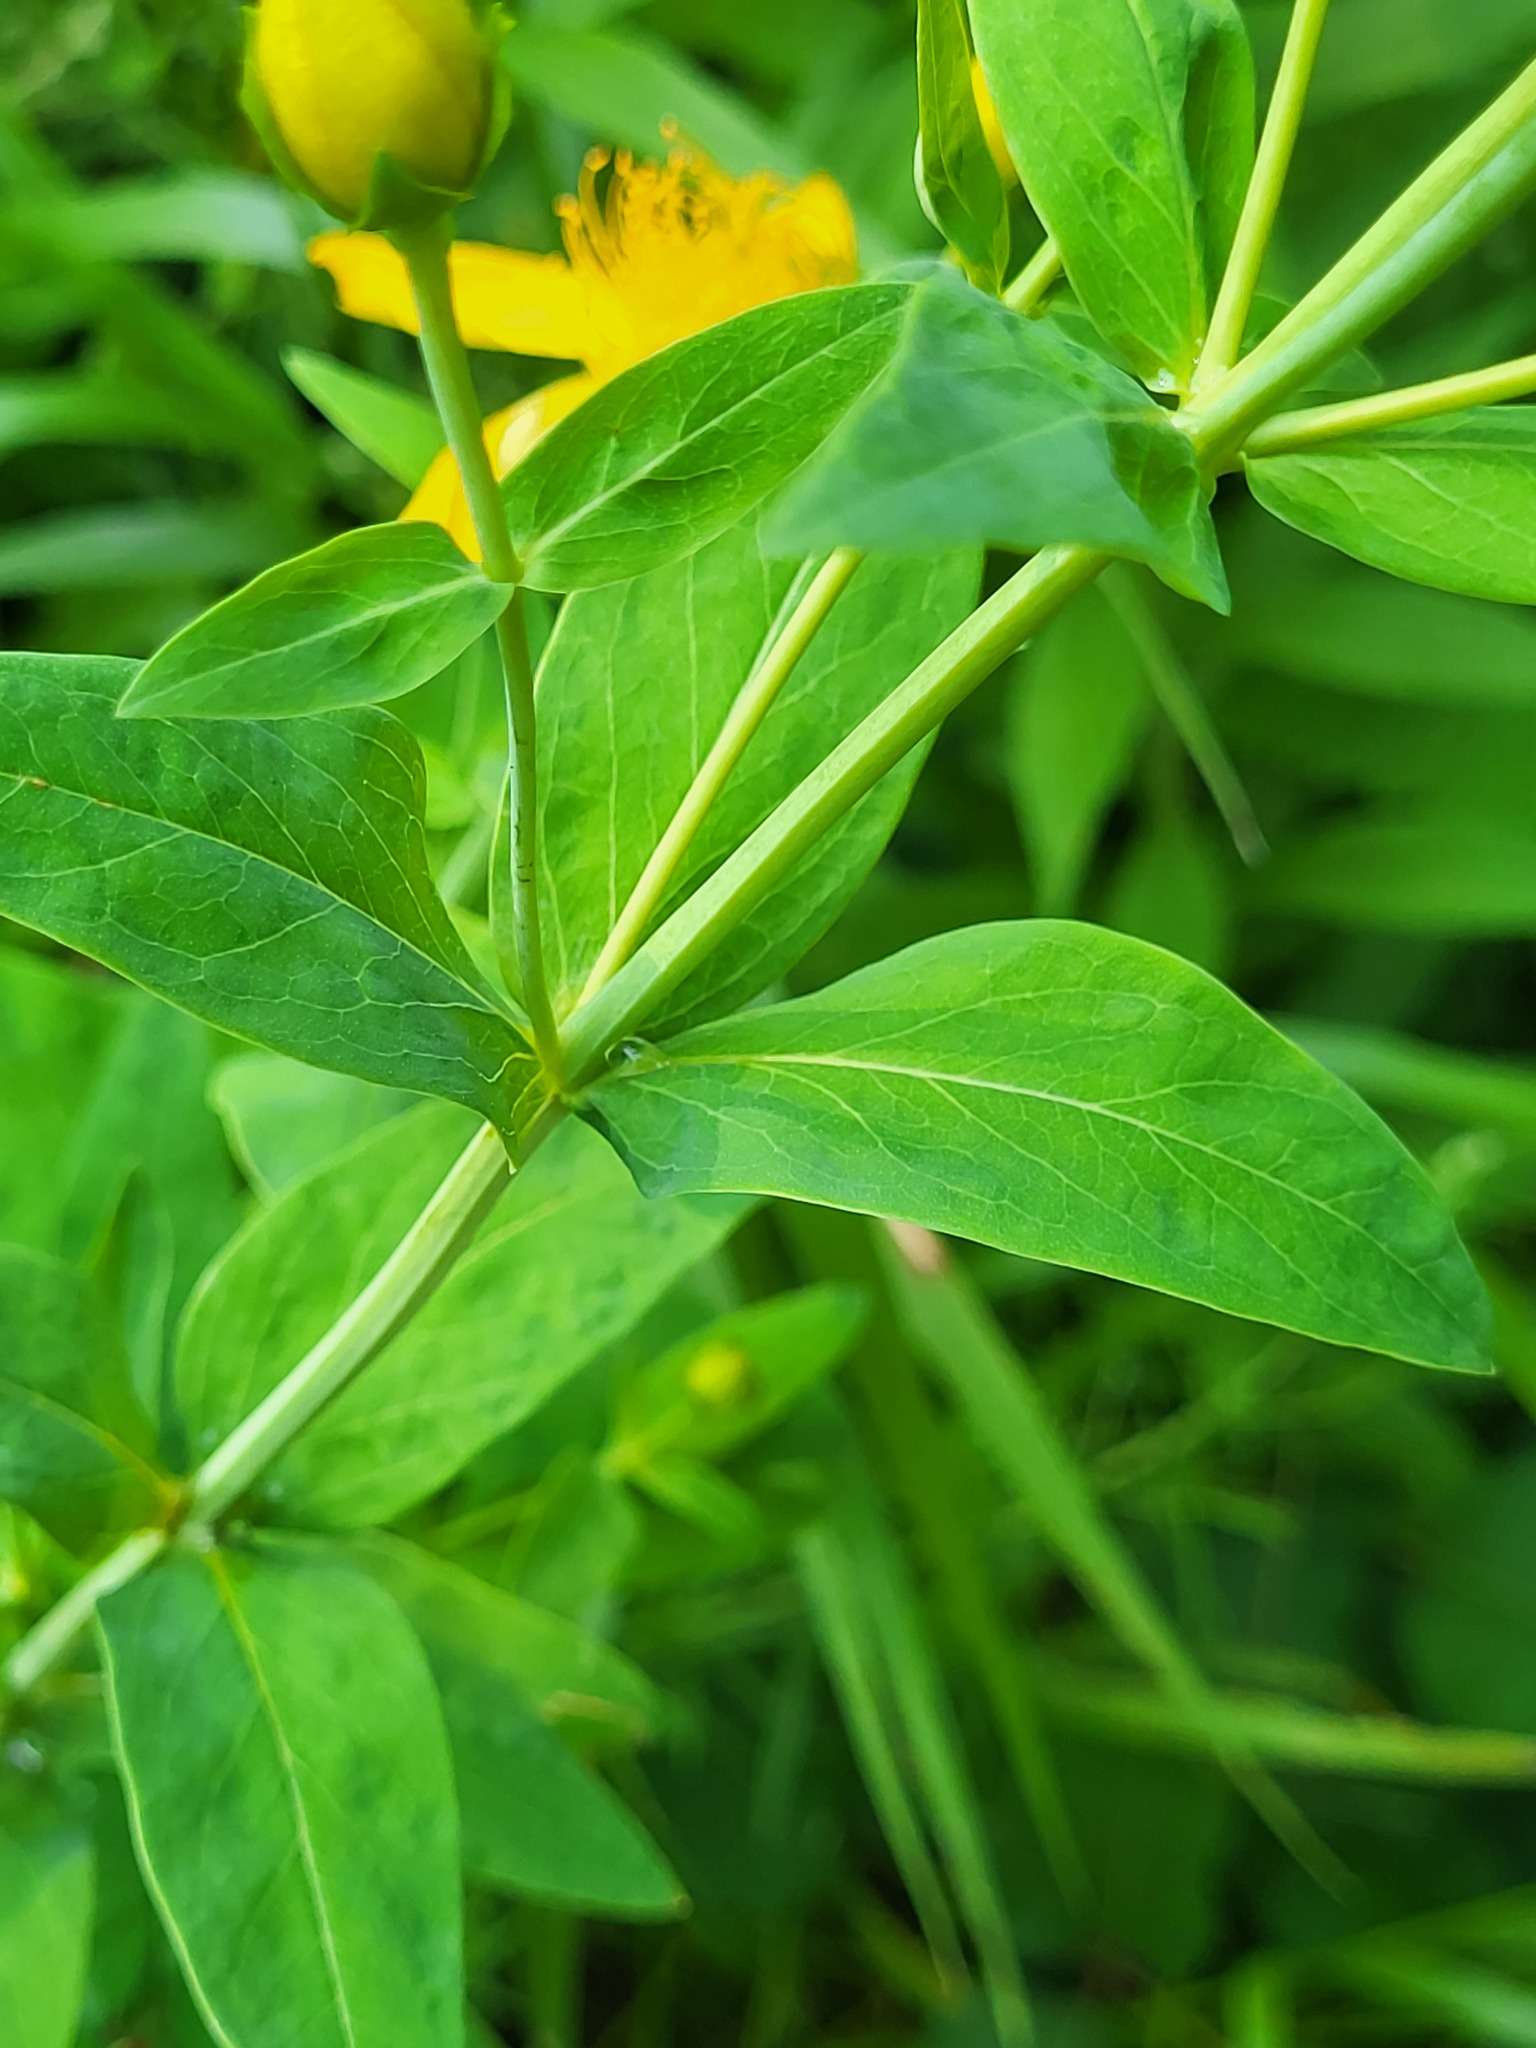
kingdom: Plantae
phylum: Tracheophyta
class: Magnoliopsida
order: Malpighiales
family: Hypericaceae
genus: Hypericum
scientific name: Hypericum ascyron
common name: Giant st. john's-wort
